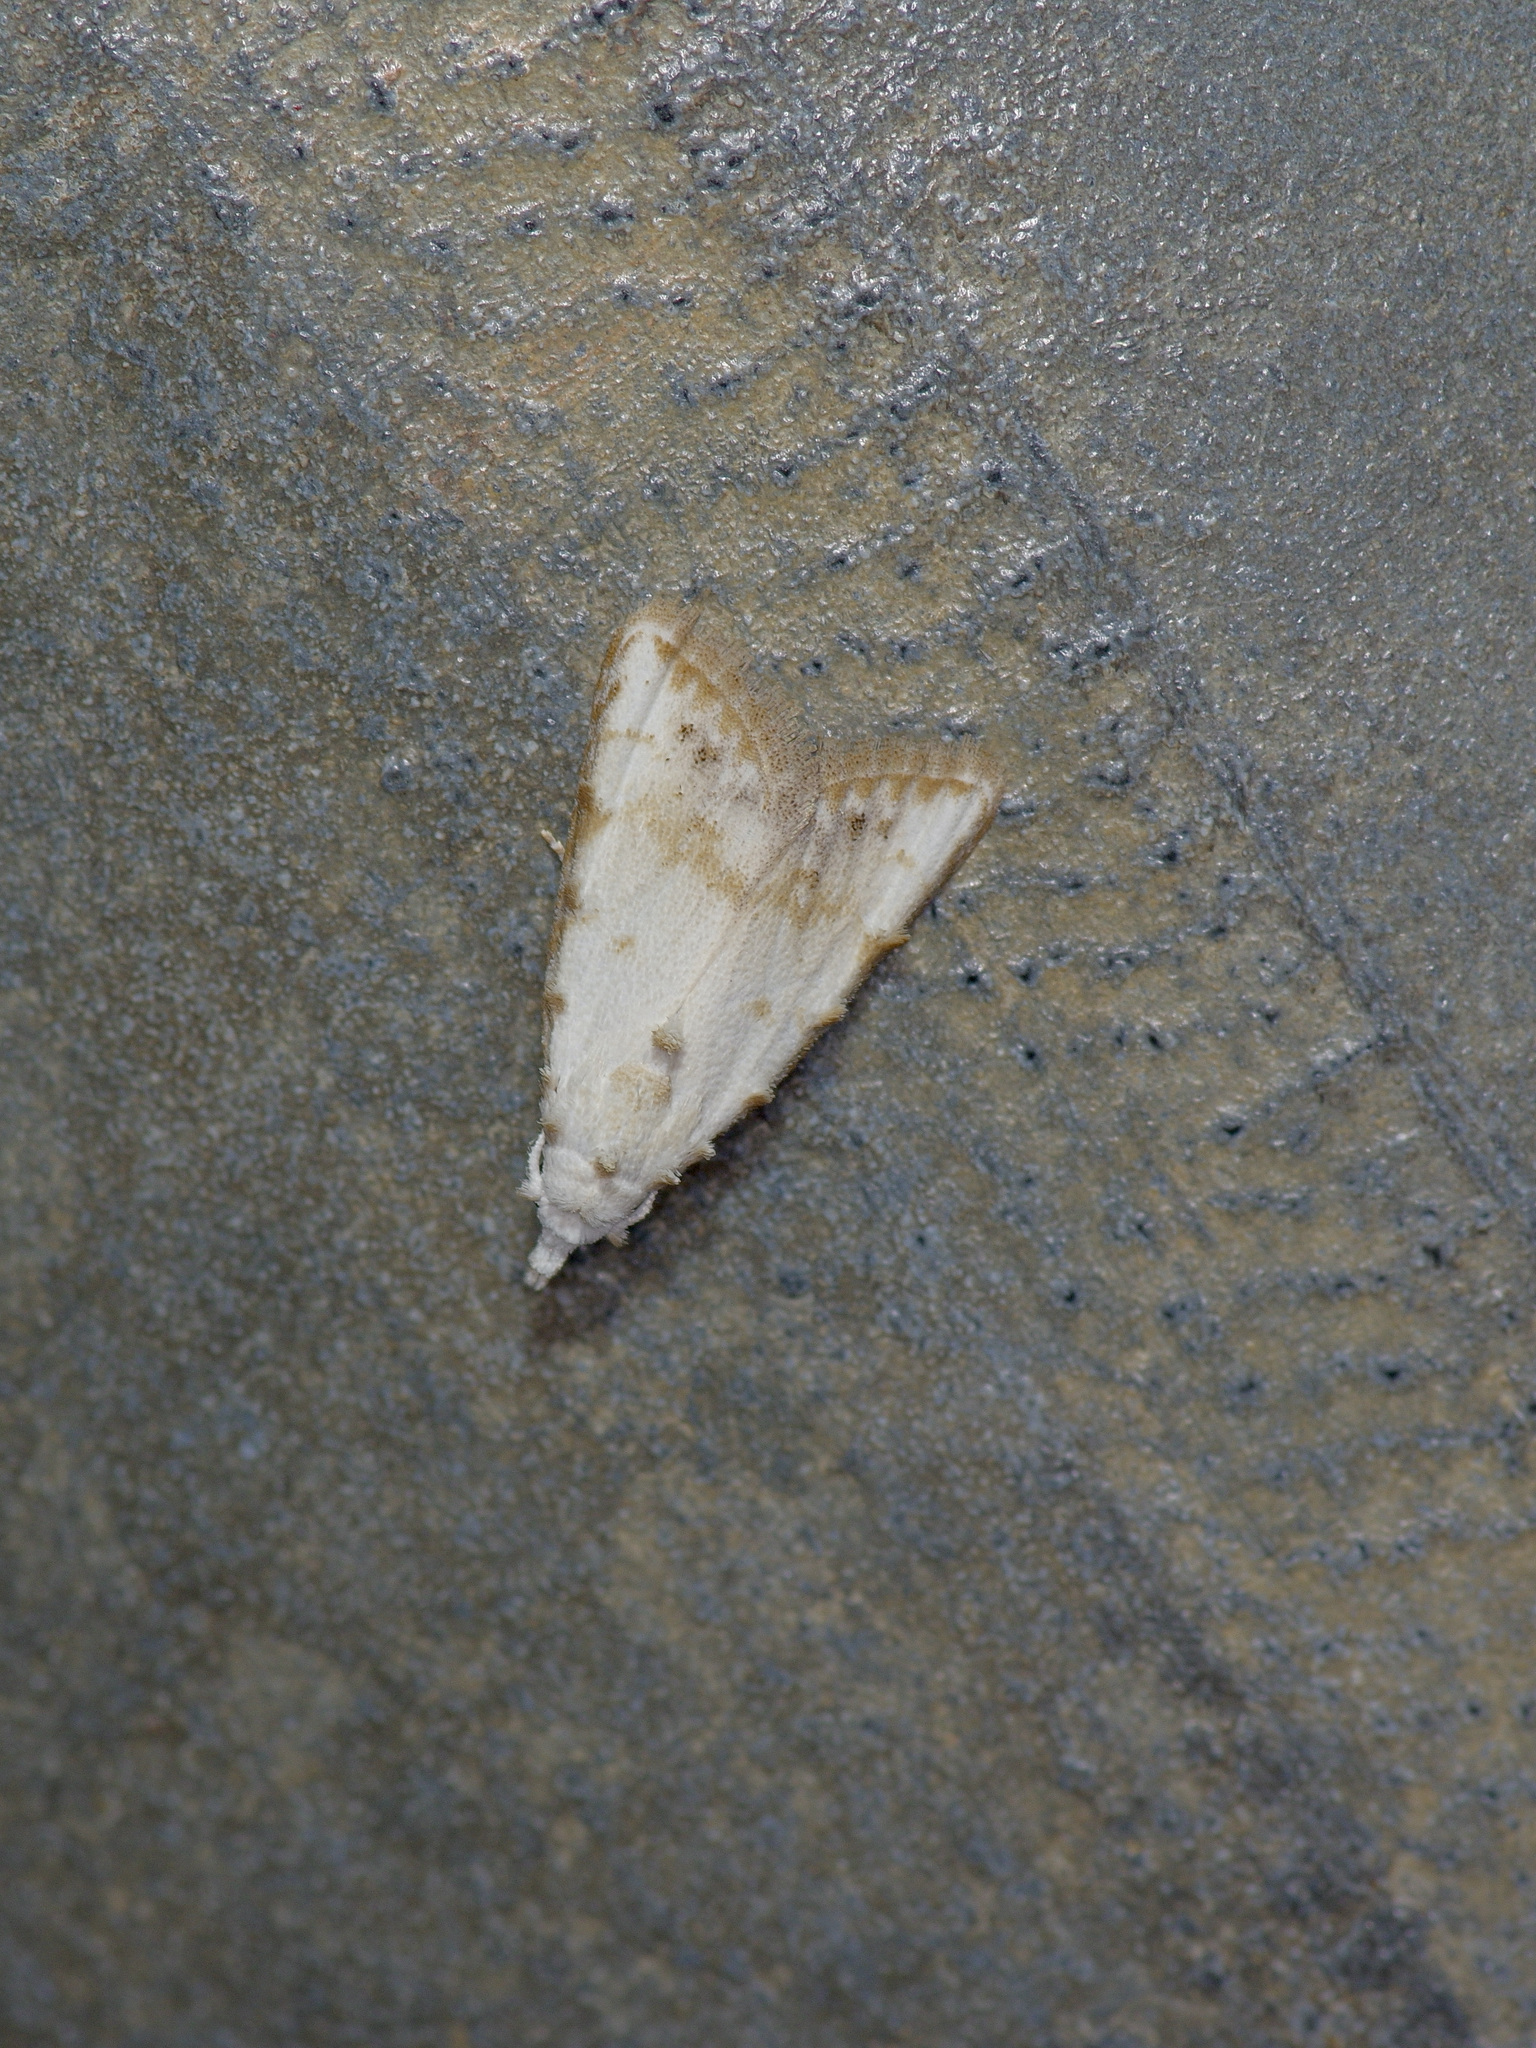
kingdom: Animalia
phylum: Arthropoda
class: Insecta
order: Lepidoptera
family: Nolidae
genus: Nola
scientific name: Nola cereella
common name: Sorghum webworm moth
